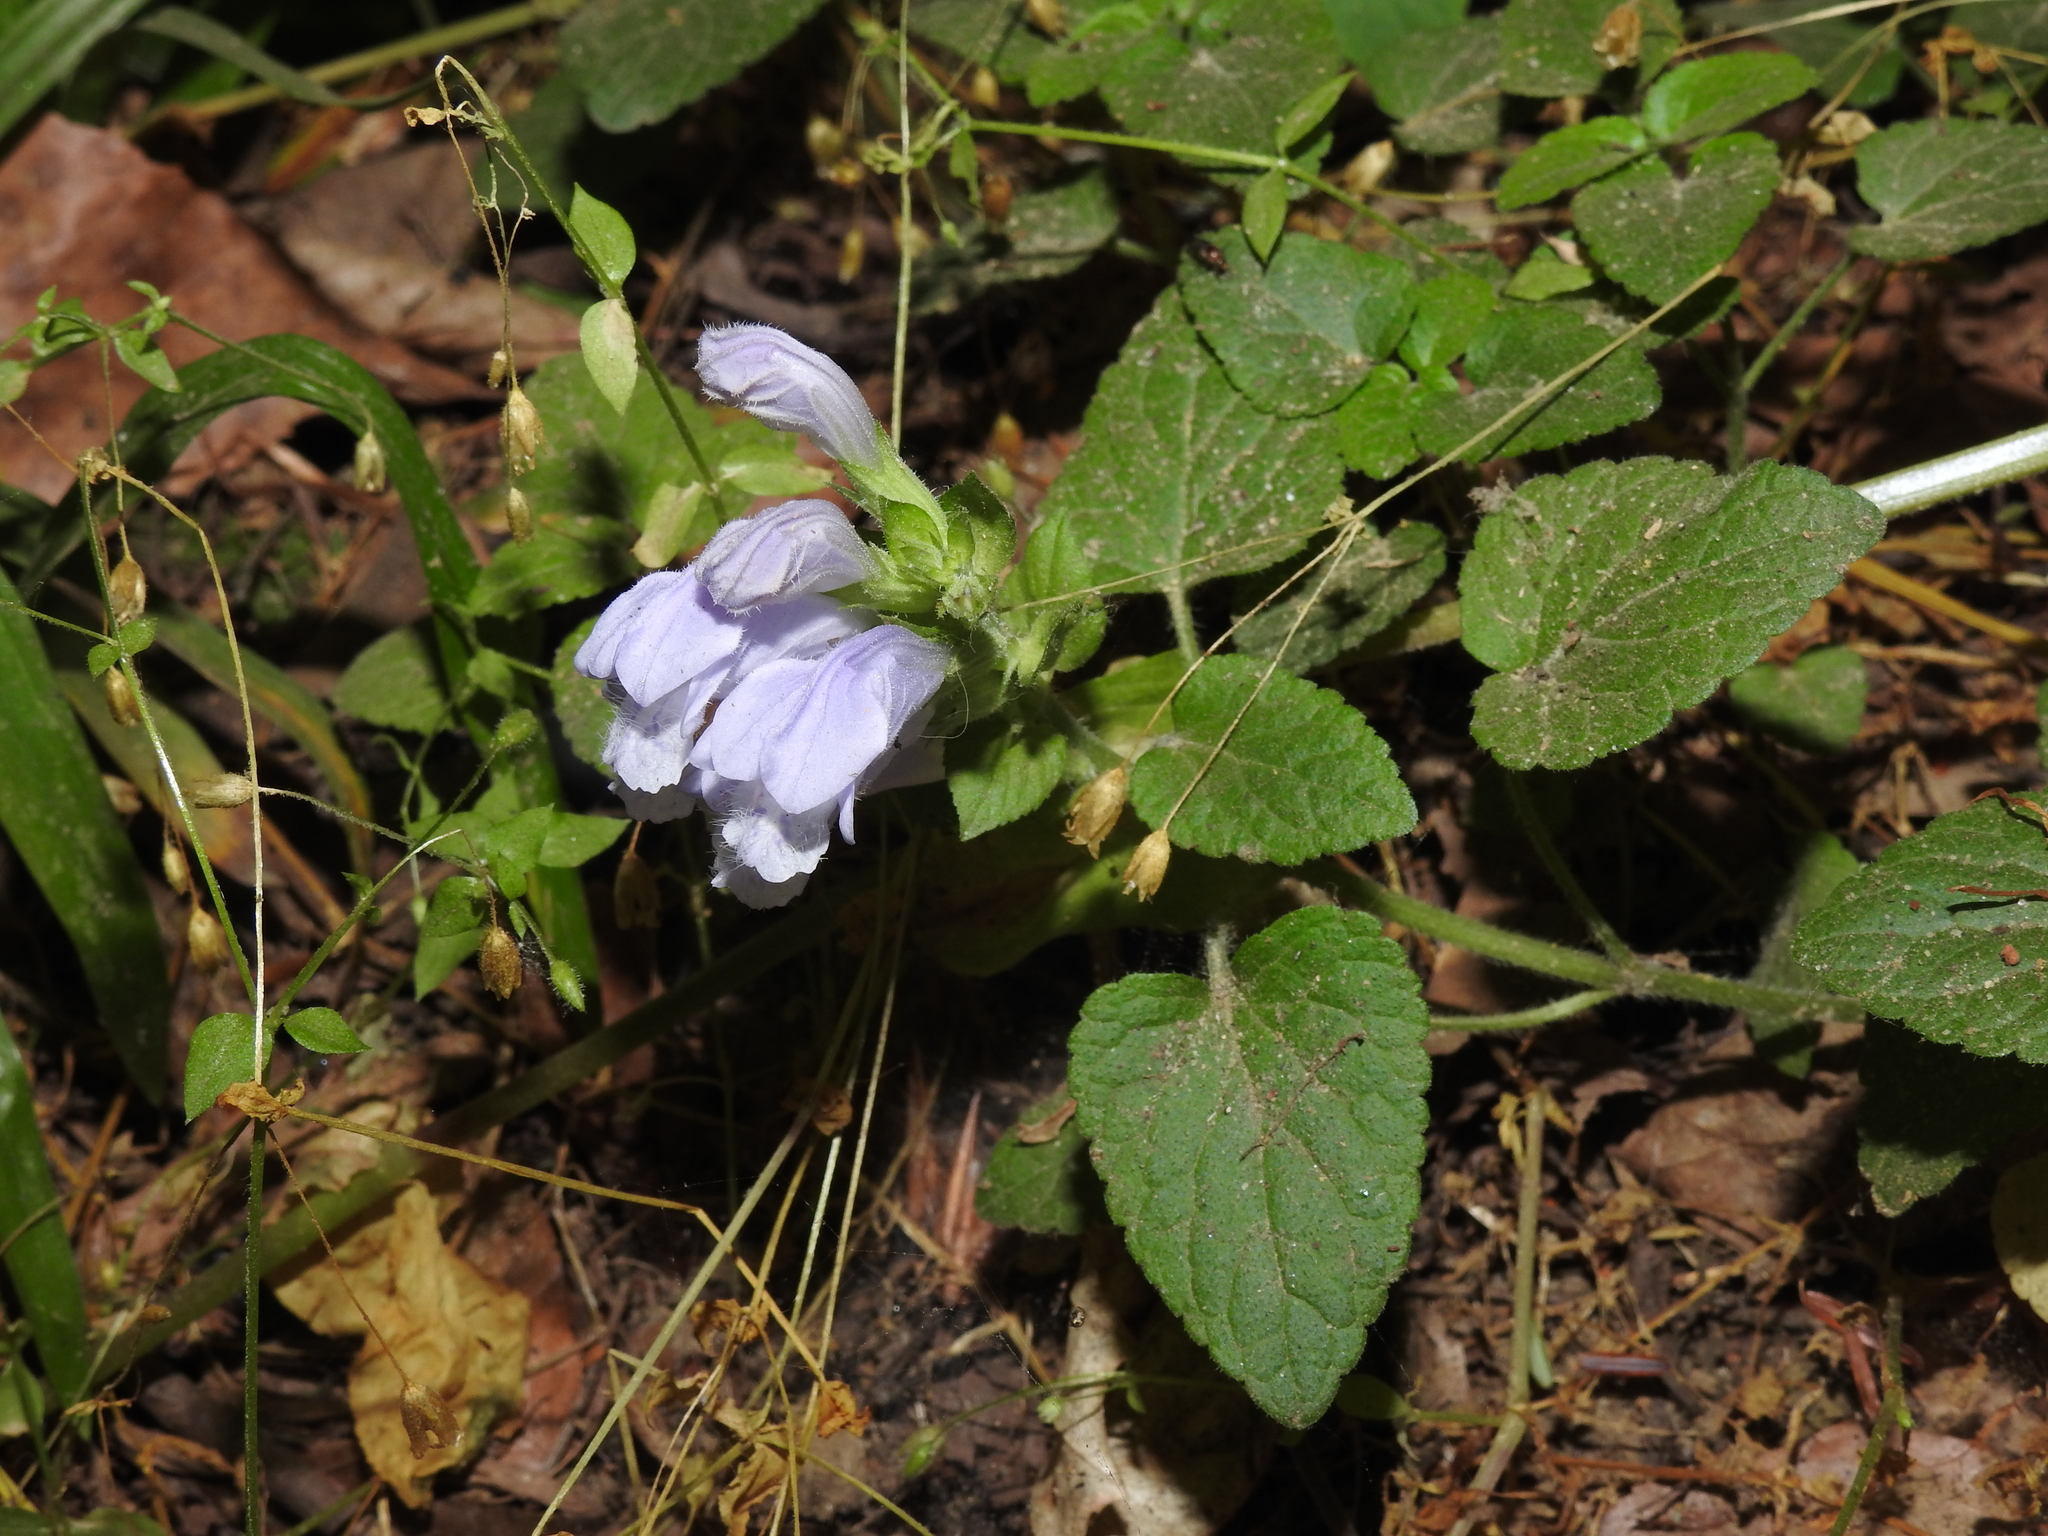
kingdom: Plantae
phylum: Tracheophyta
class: Magnoliopsida
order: Lamiales
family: Lamiaceae
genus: Meehania
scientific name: Meehania cordata
